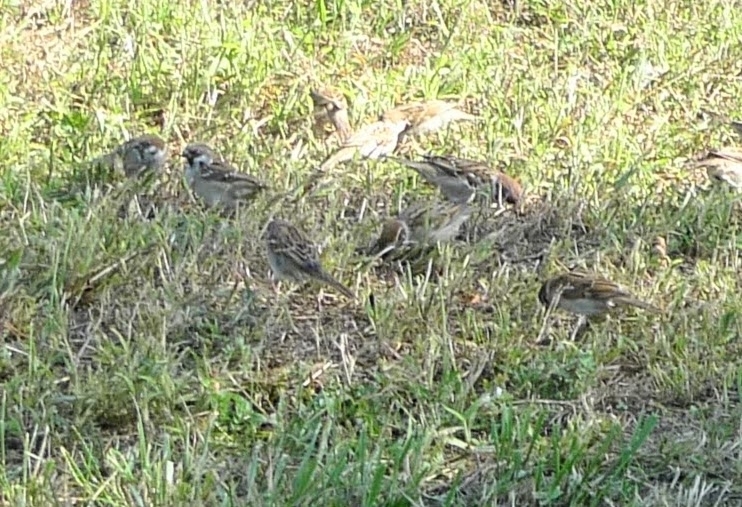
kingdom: Animalia
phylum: Chordata
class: Aves
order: Passeriformes
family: Passeridae
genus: Passer
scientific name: Passer montanus
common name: Eurasian tree sparrow
